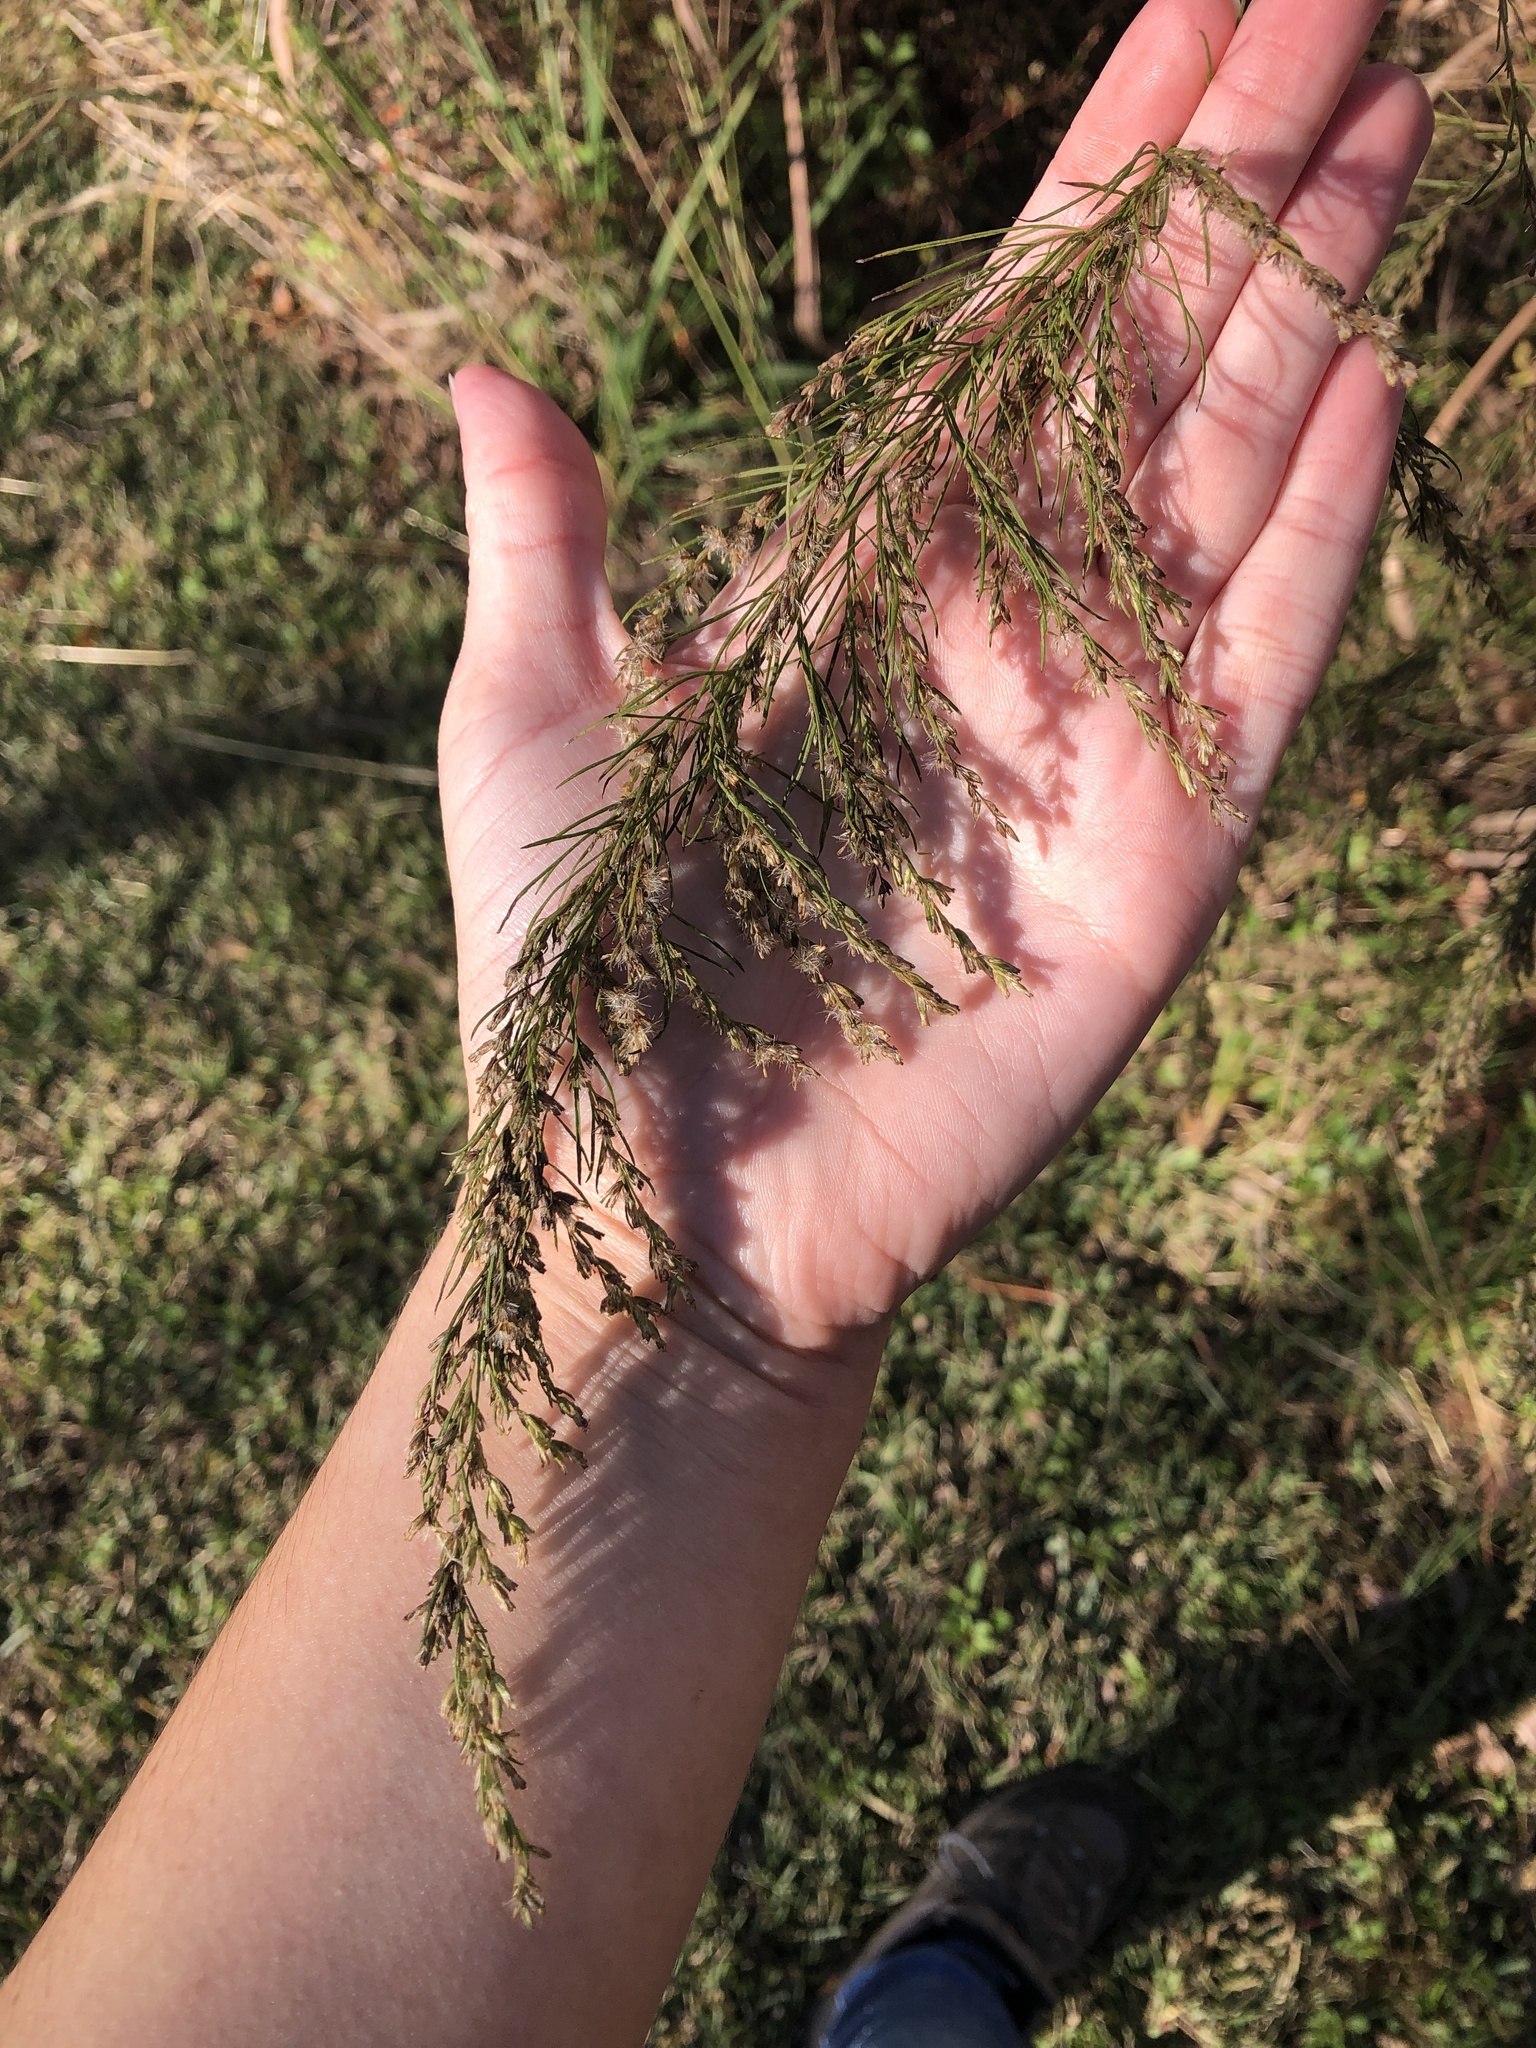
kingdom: Plantae
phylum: Tracheophyta
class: Magnoliopsida
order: Asterales
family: Asteraceae
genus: Eupatorium
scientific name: Eupatorium capillifolium
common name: Dog-fennel
